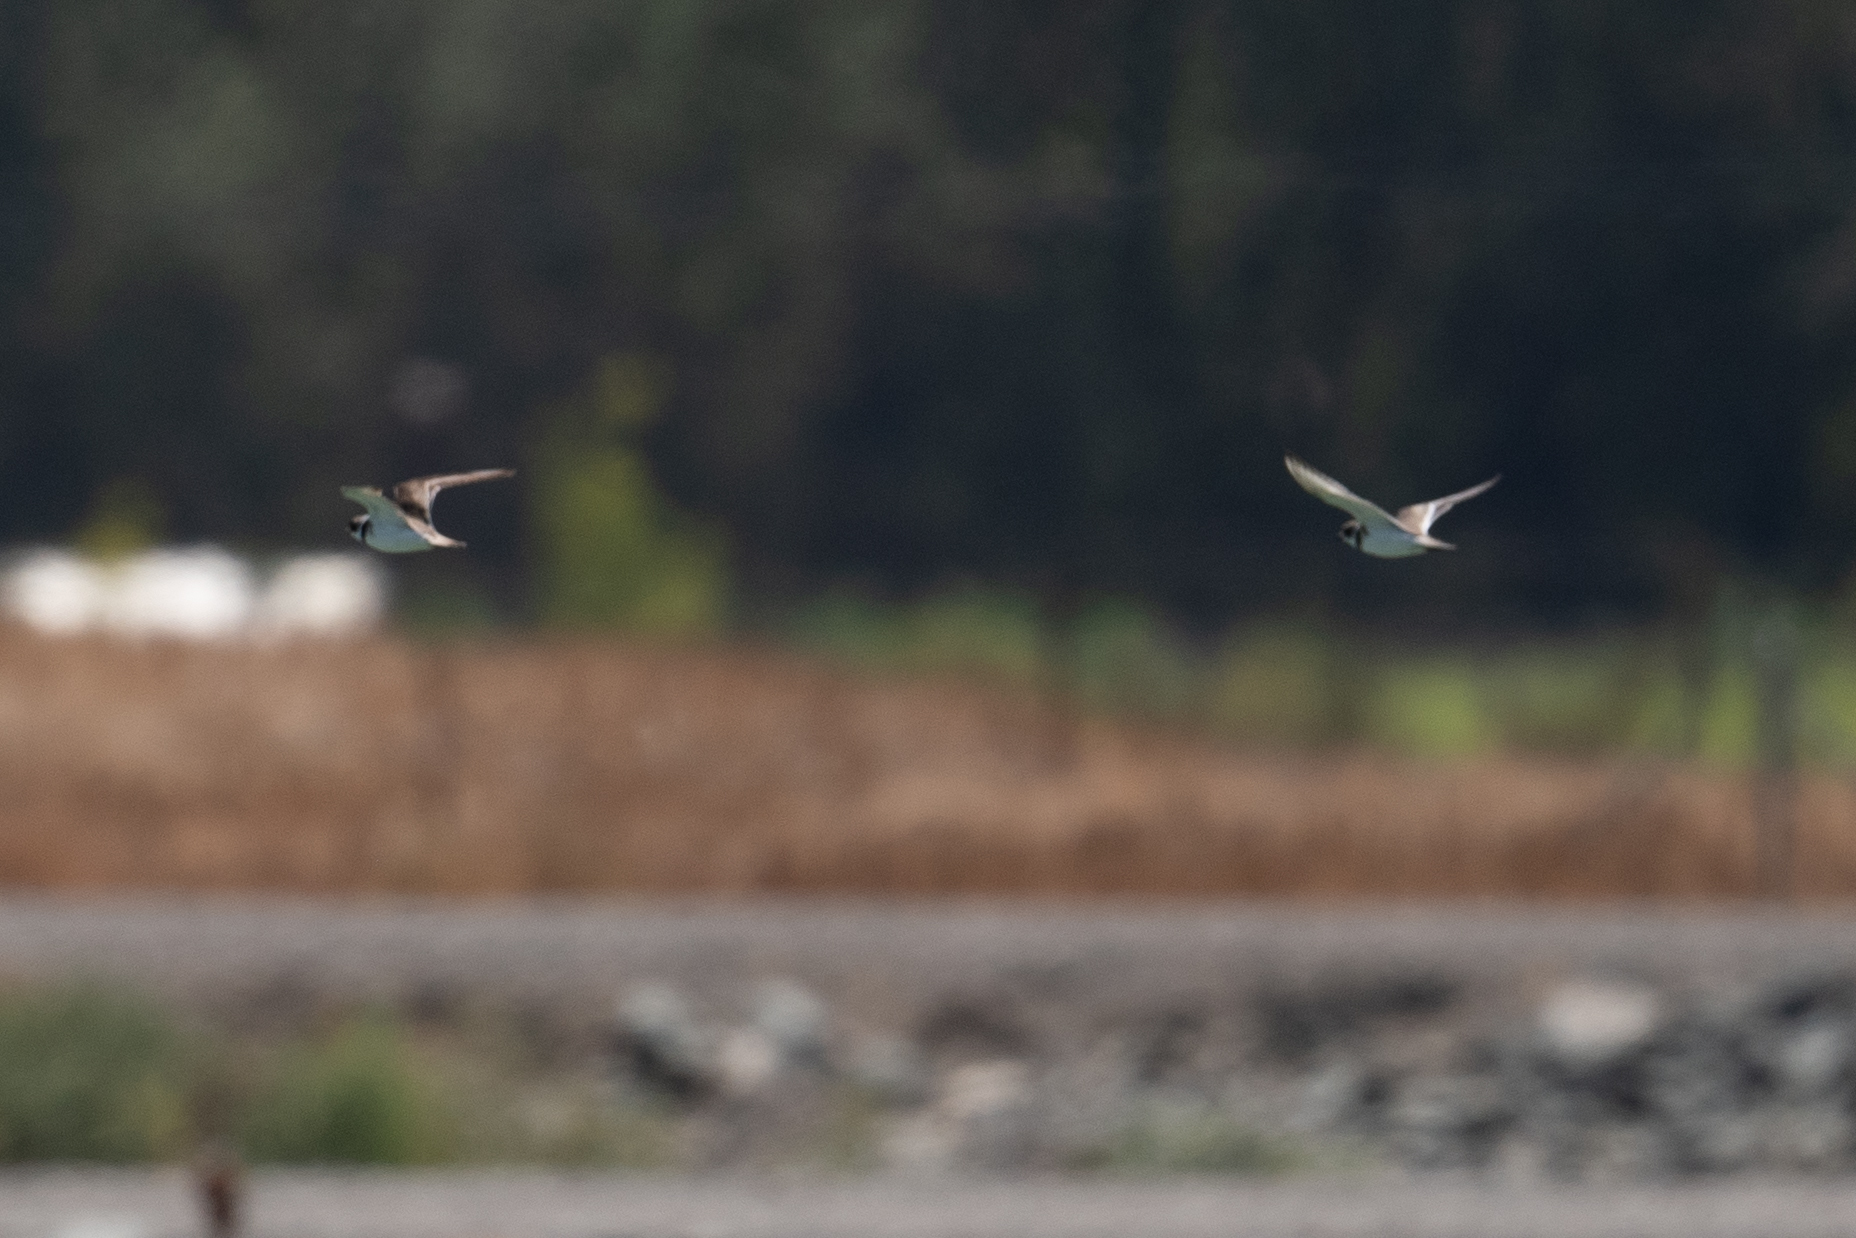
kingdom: Animalia
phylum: Chordata
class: Aves
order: Charadriiformes
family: Charadriidae
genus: Charadrius
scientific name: Charadrius semipalmatus
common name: Semipalmated plover
